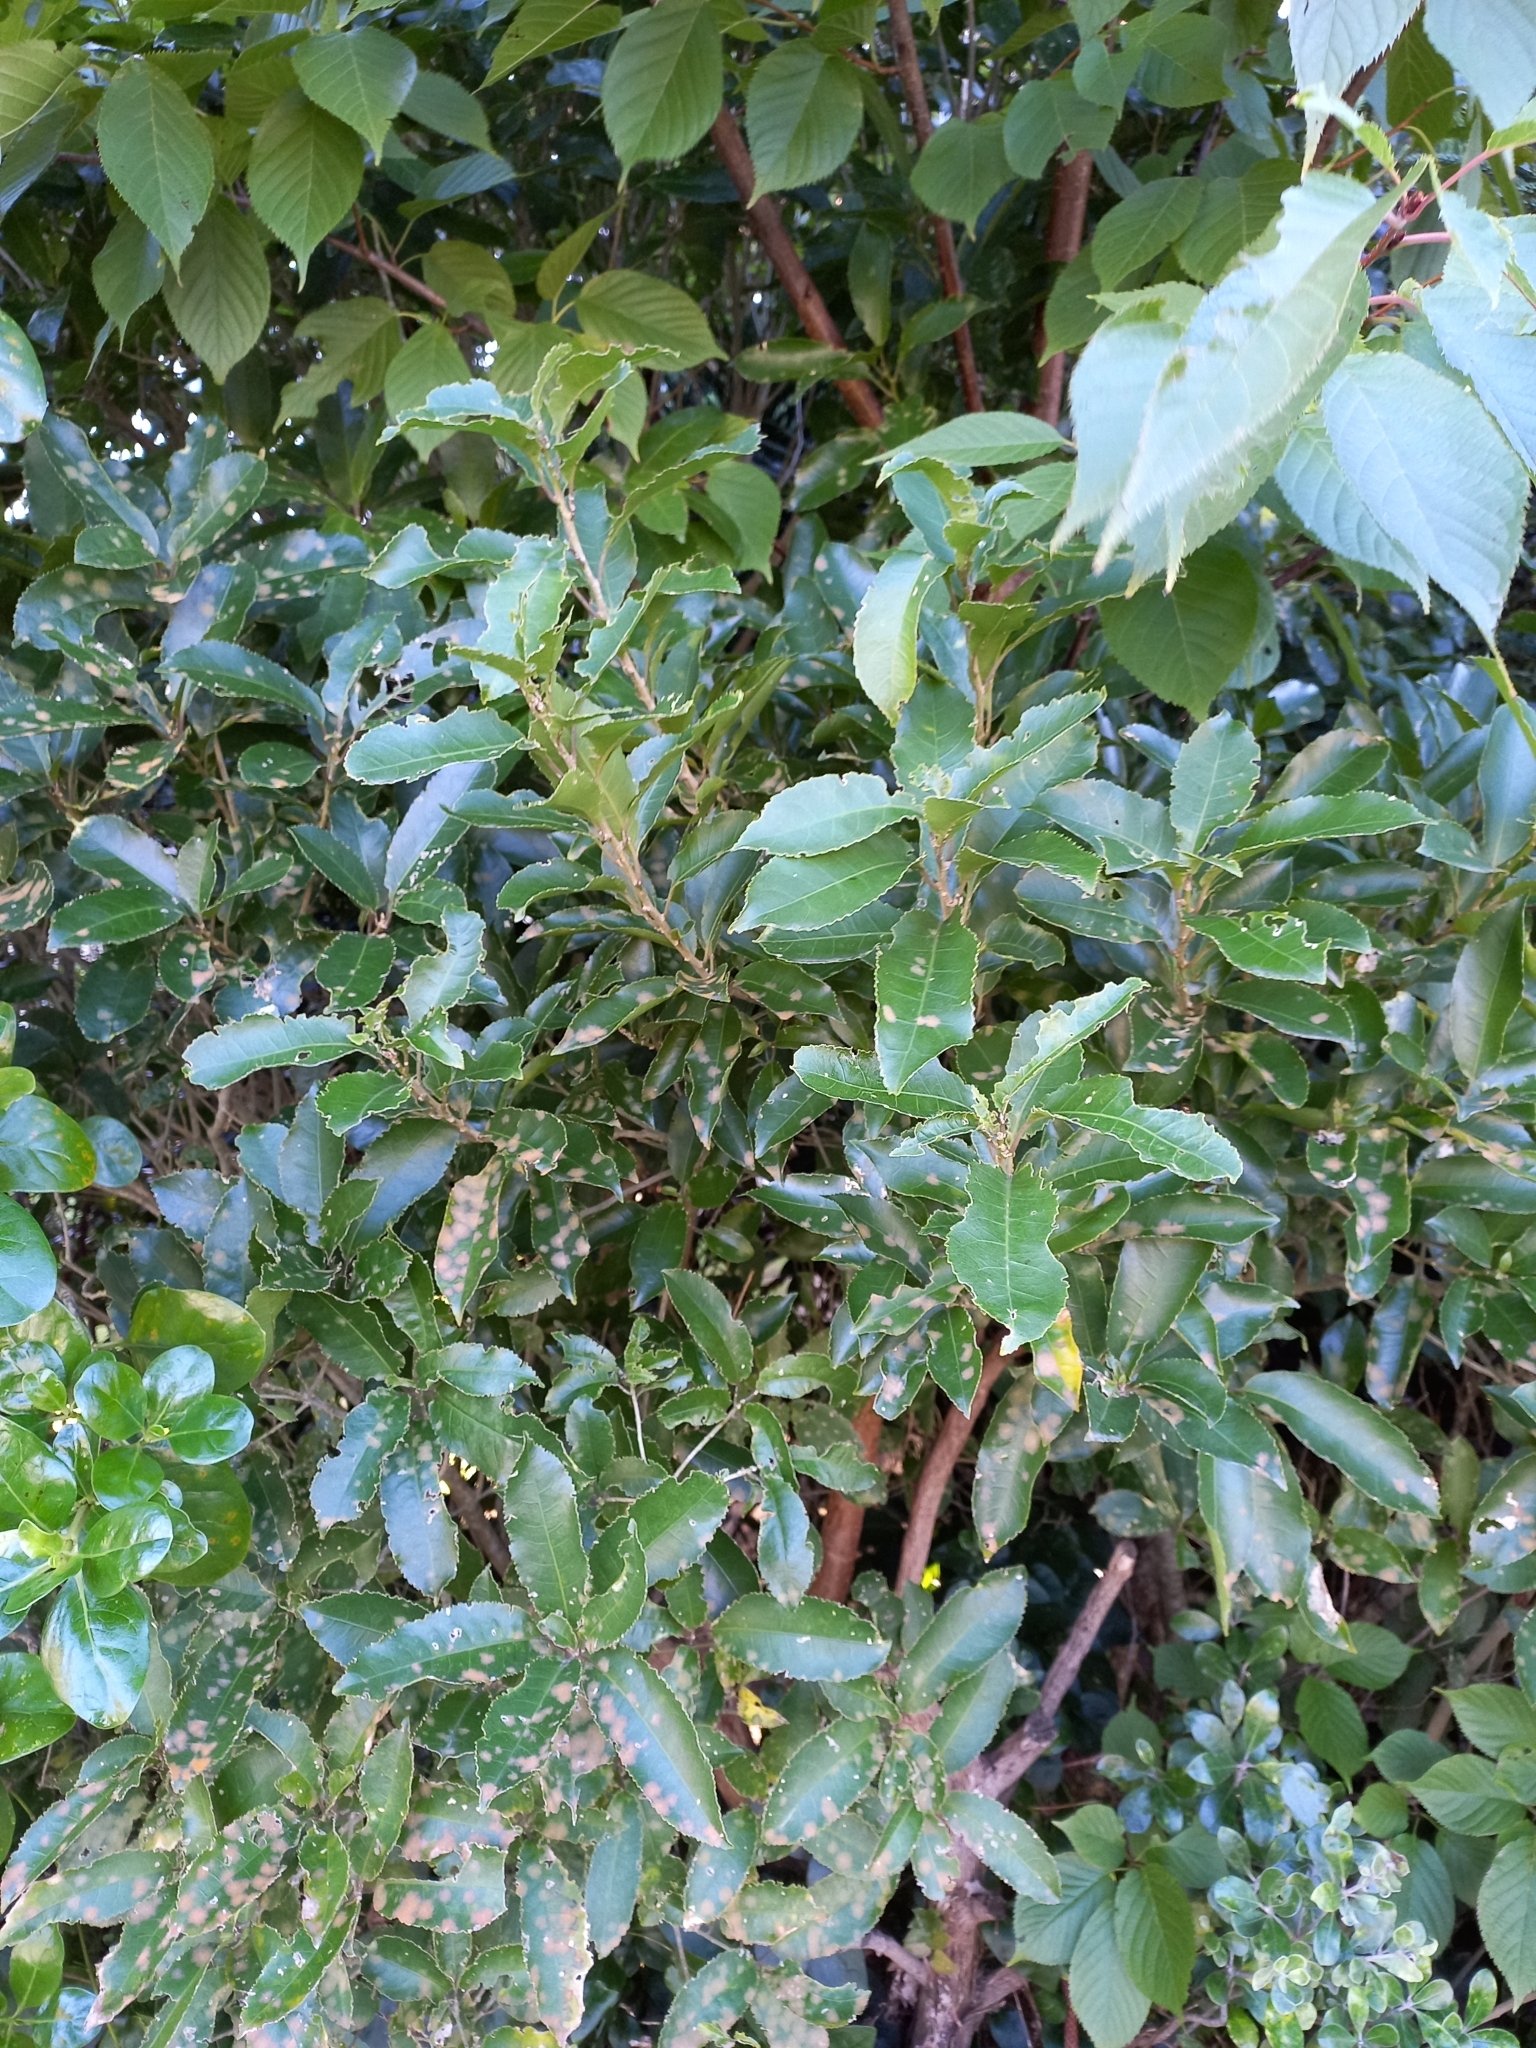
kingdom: Plantae
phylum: Tracheophyta
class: Magnoliopsida
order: Malpighiales
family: Violaceae
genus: Melicytus
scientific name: Melicytus ramiflorus
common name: Mahoe
